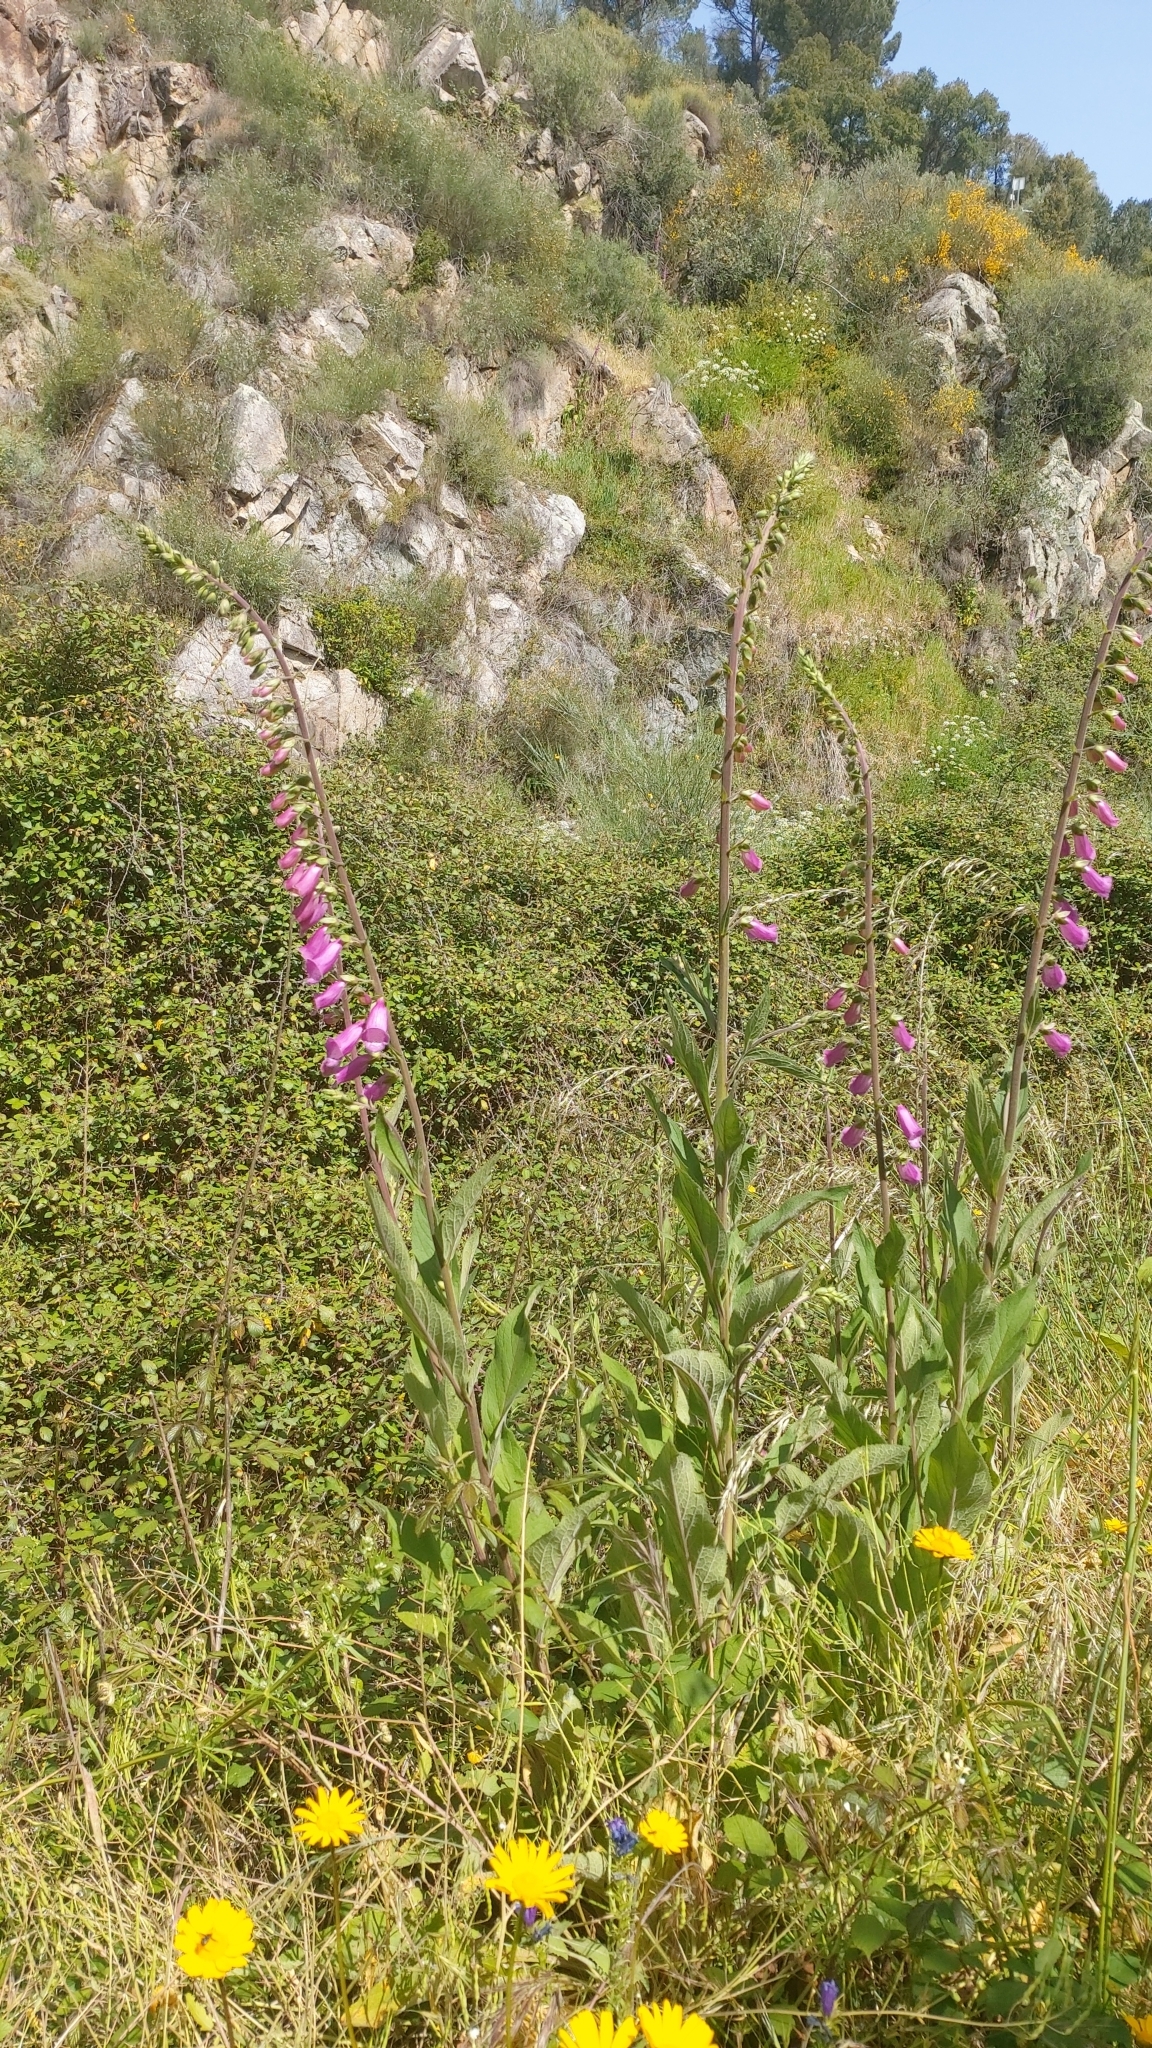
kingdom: Plantae
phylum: Tracheophyta
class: Magnoliopsida
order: Lamiales
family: Plantaginaceae
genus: Digitalis
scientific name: Digitalis purpurea
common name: Foxglove
